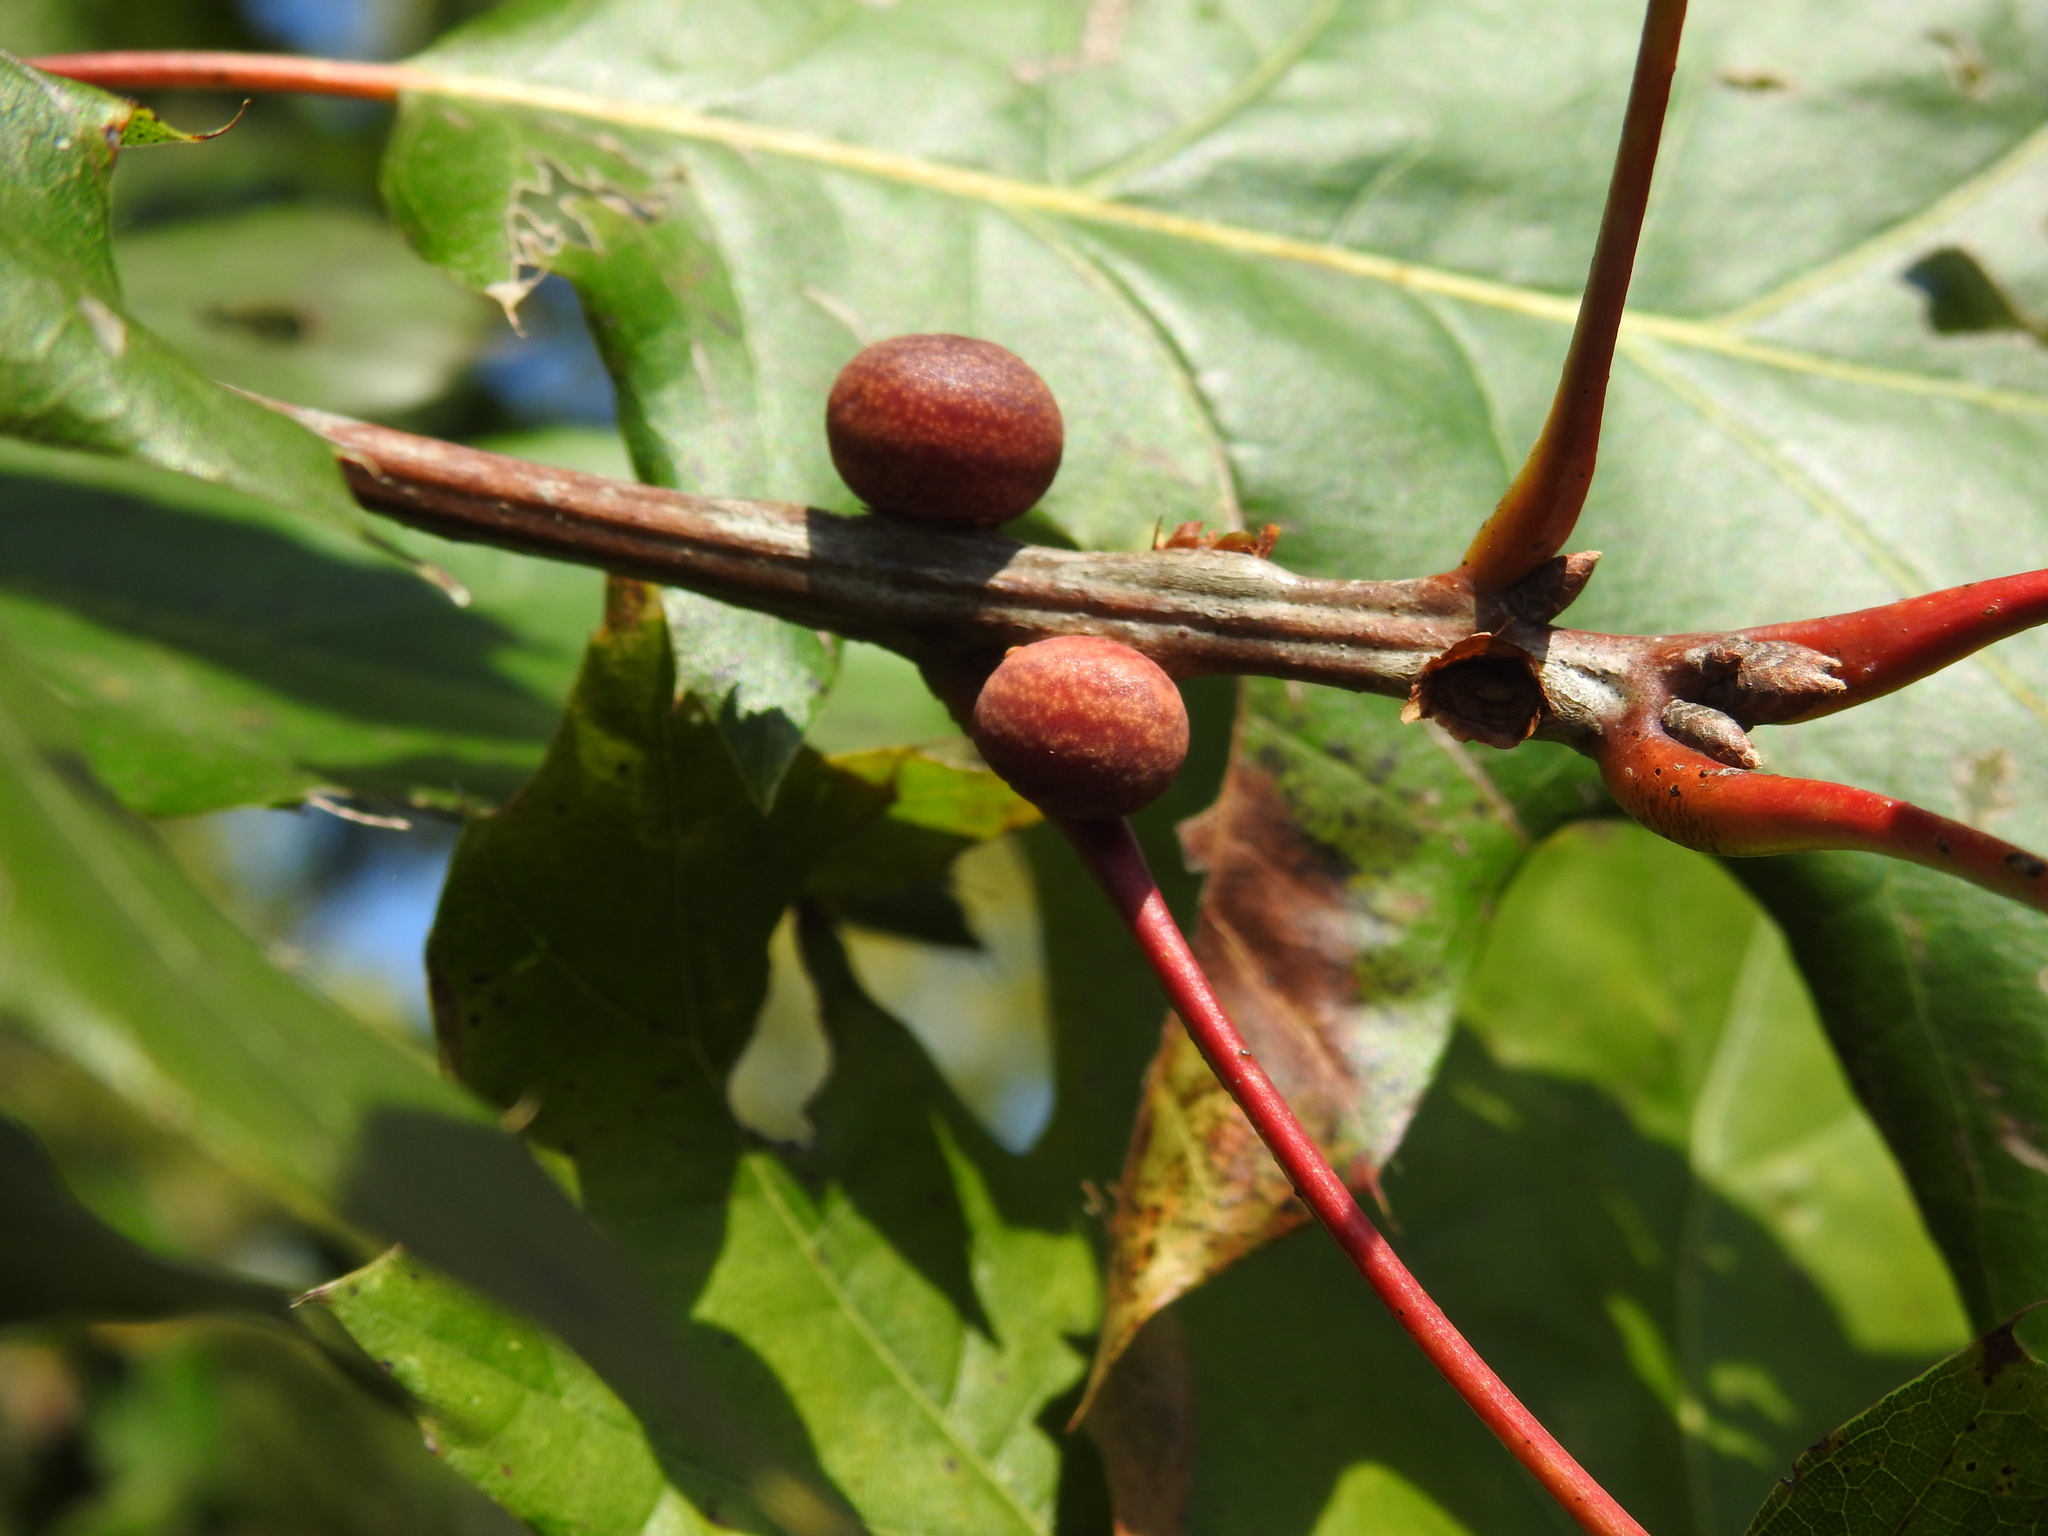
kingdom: Animalia
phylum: Arthropoda
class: Insecta
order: Hymenoptera
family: Cynipidae
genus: Kokkocynips
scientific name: Kokkocynips imbricariae
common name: Banded bullet gall wasp
